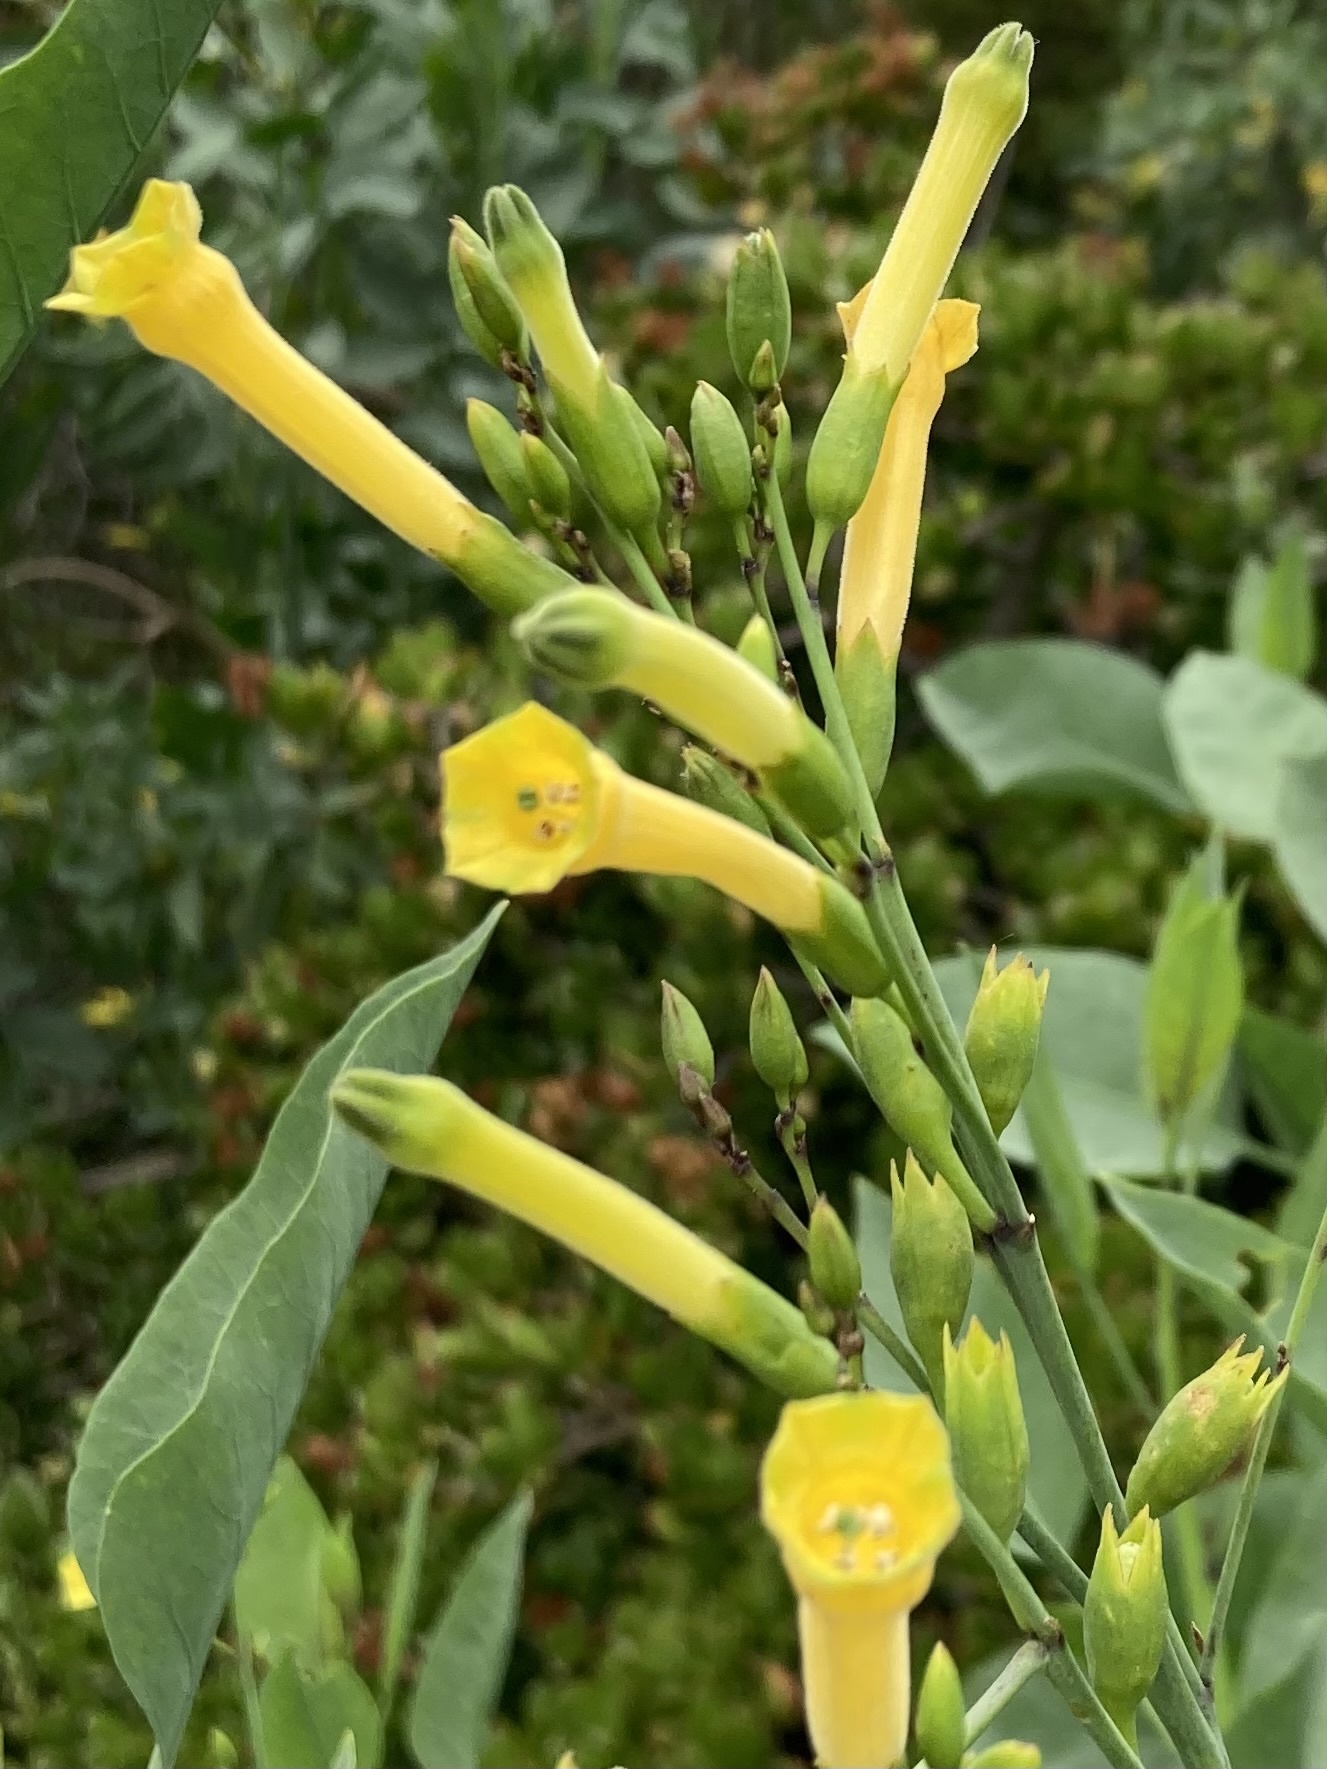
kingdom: Plantae
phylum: Tracheophyta
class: Magnoliopsida
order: Solanales
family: Solanaceae
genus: Nicotiana
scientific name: Nicotiana glauca
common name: Tree tobacco
